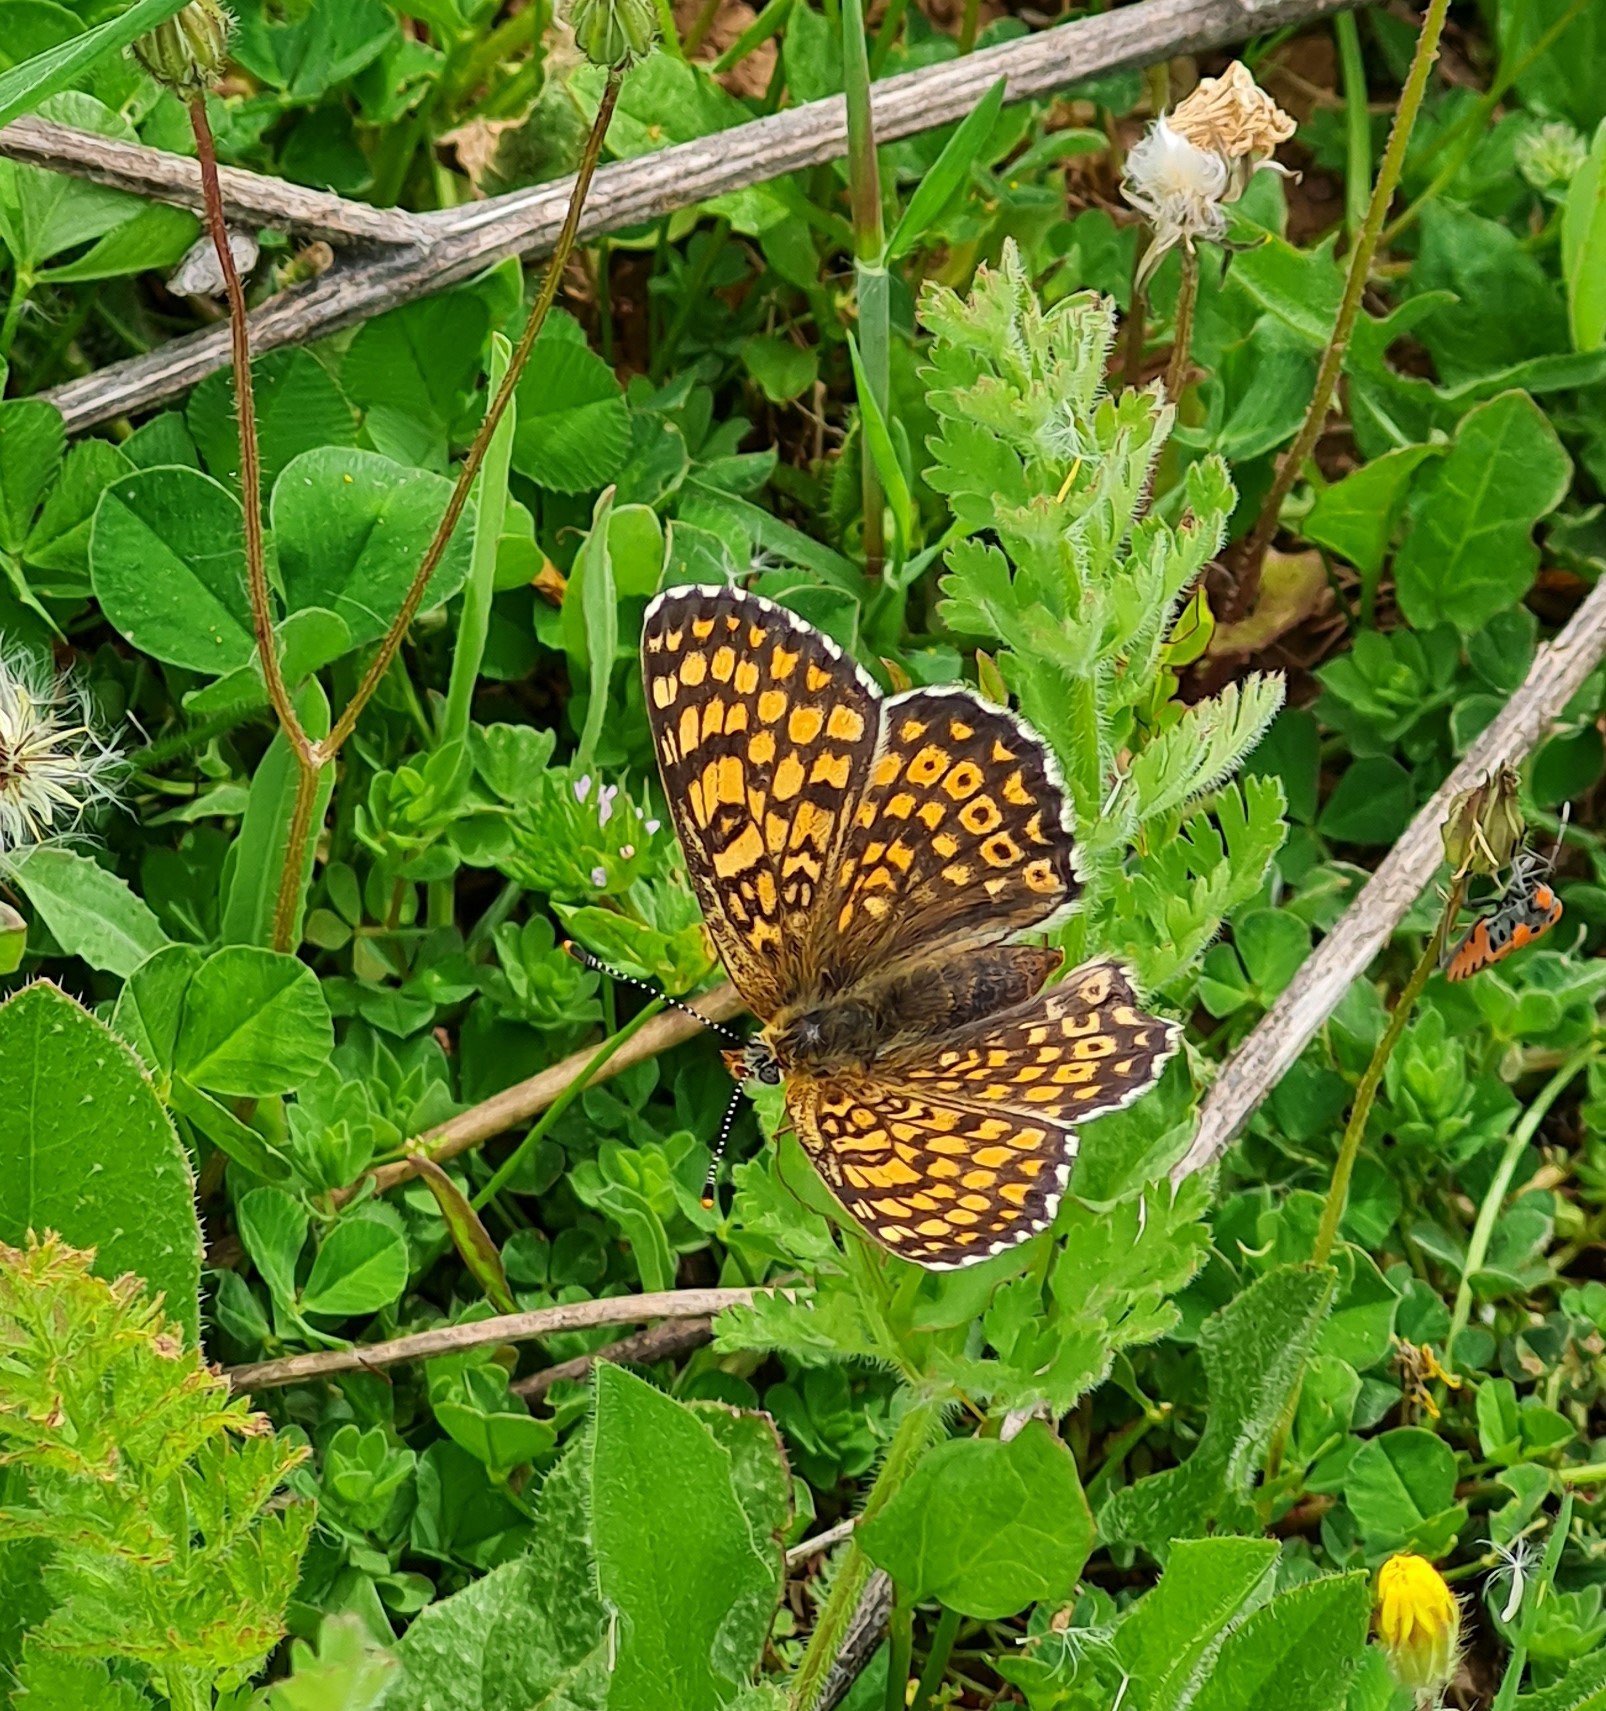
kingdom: Animalia
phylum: Arthropoda
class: Insecta
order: Lepidoptera
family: Nymphalidae
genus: Melitaea
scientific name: Melitaea cinxia
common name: Glanville fritillary
